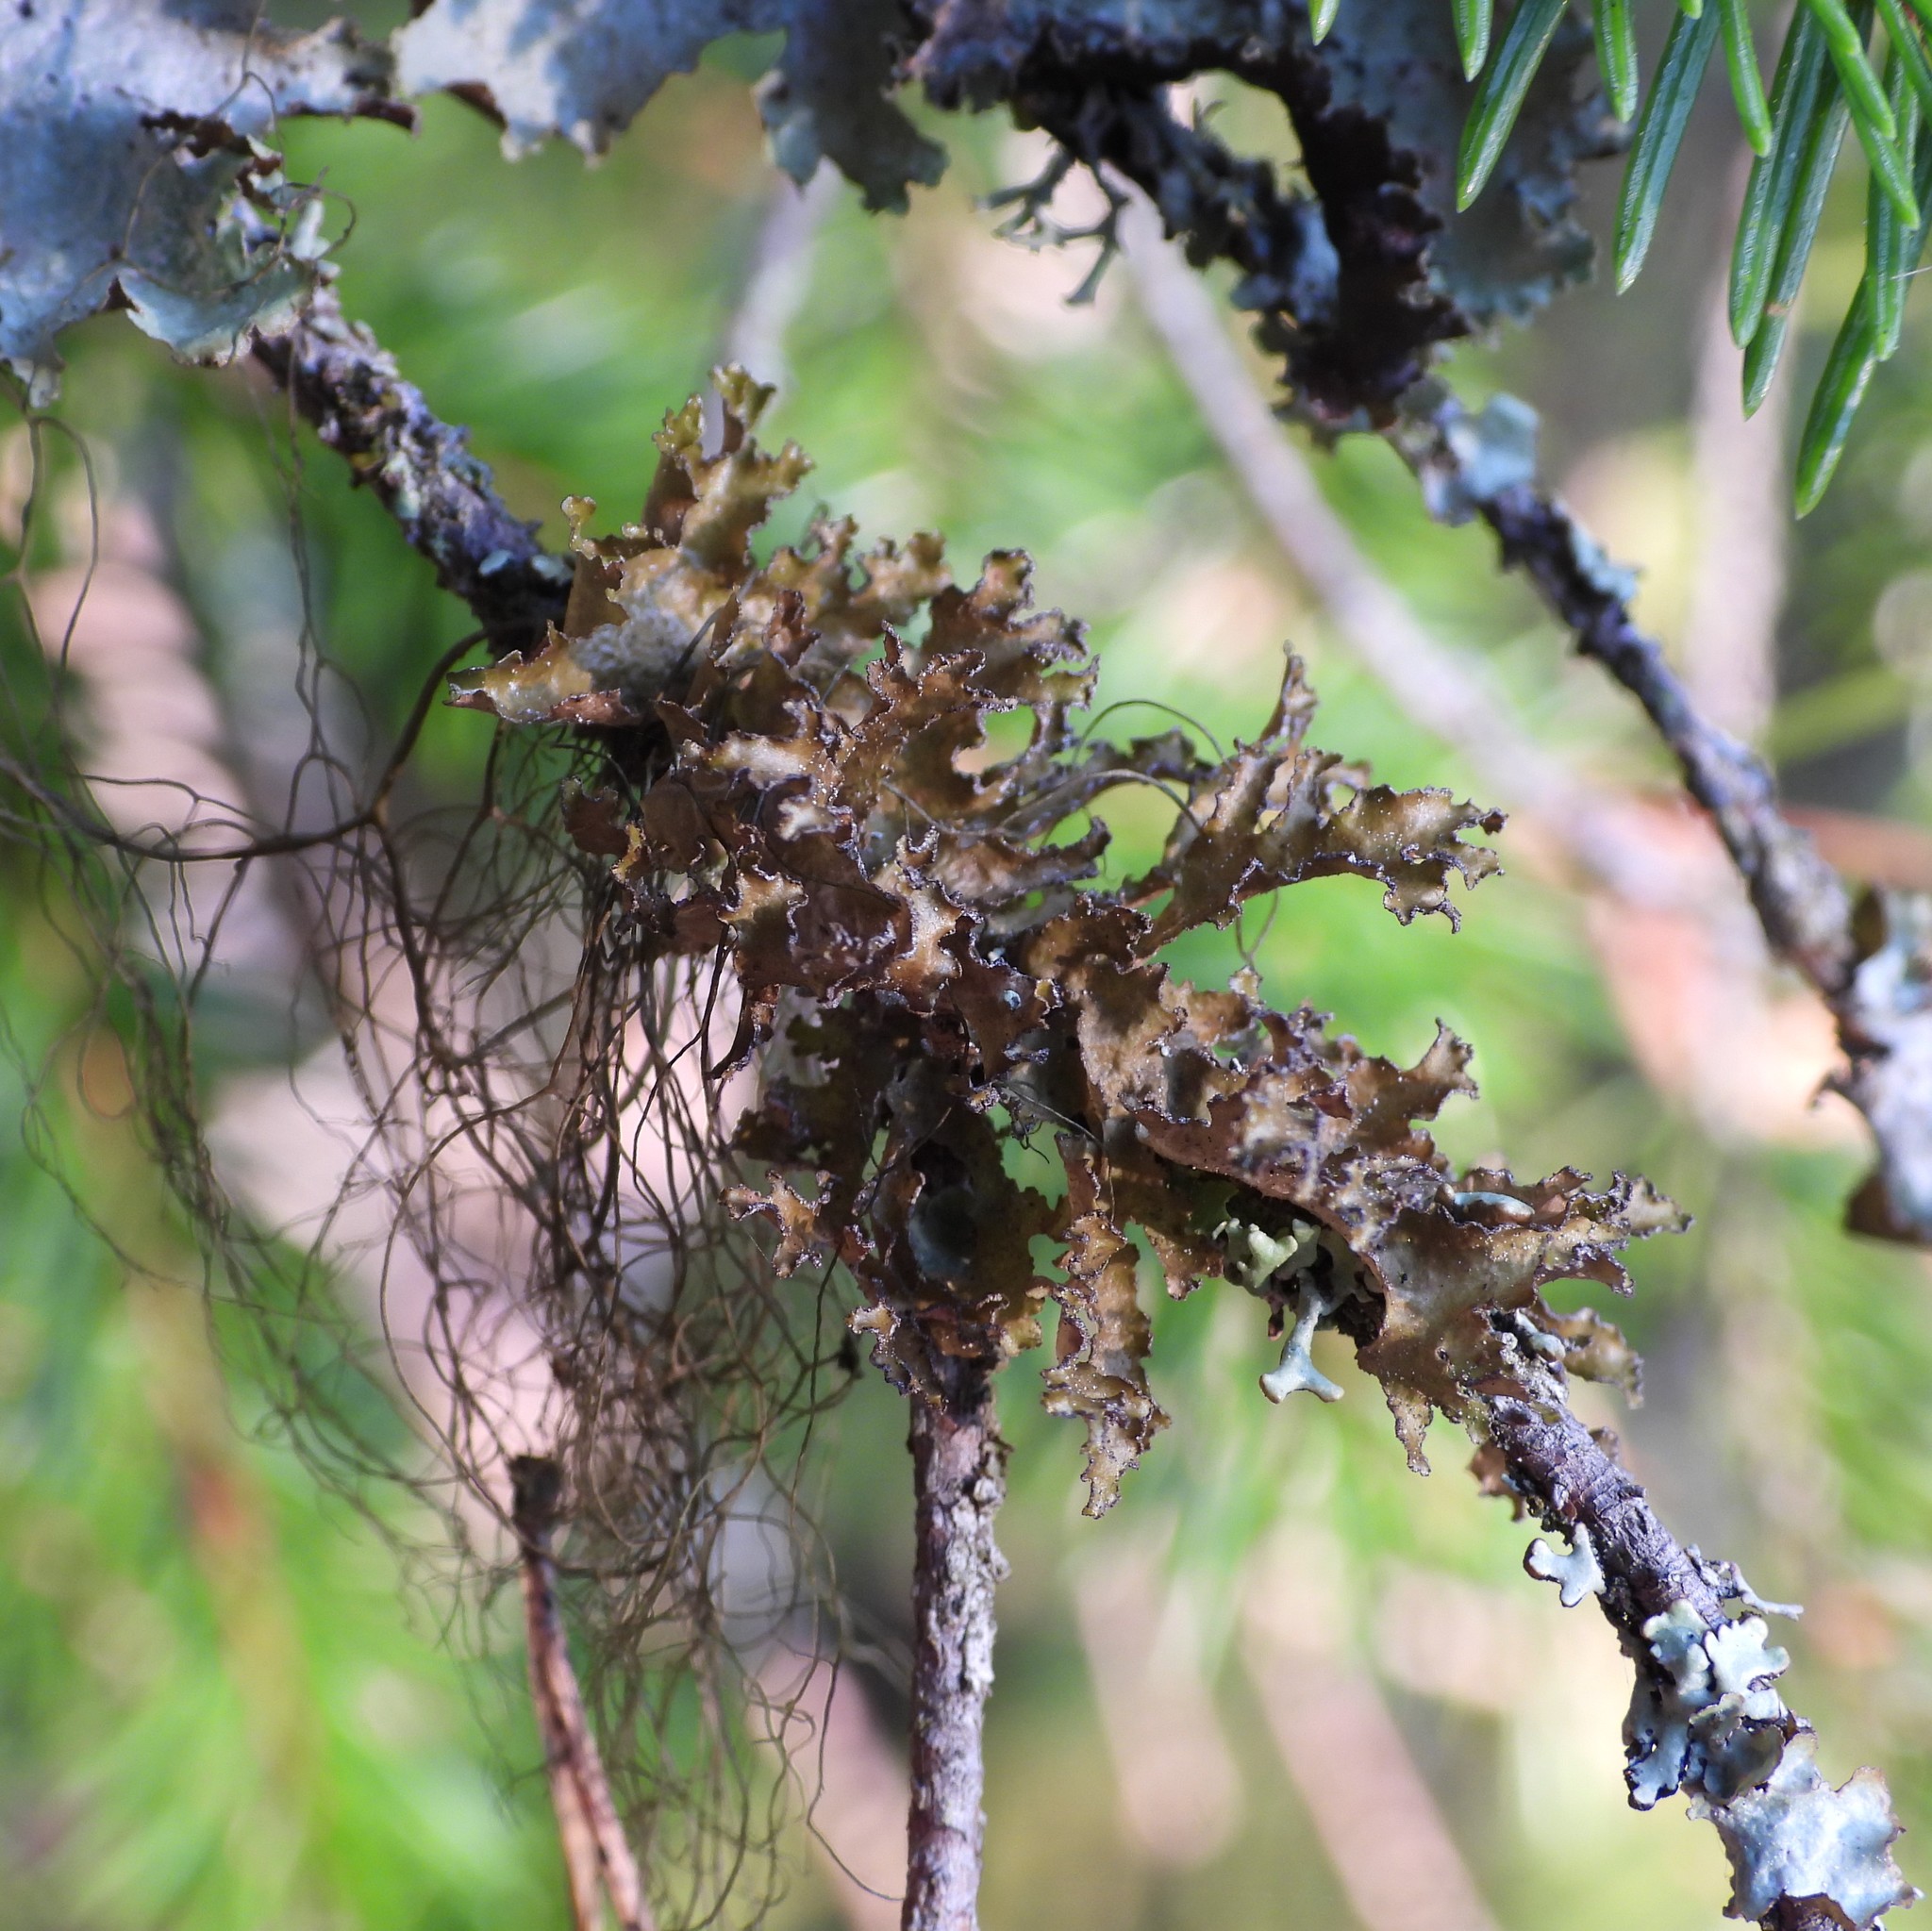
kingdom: Fungi
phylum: Ascomycota
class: Lecanoromycetes
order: Lecanorales
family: Parmeliaceae
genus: Nephromopsis
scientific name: Nephromopsis chlorophylla
